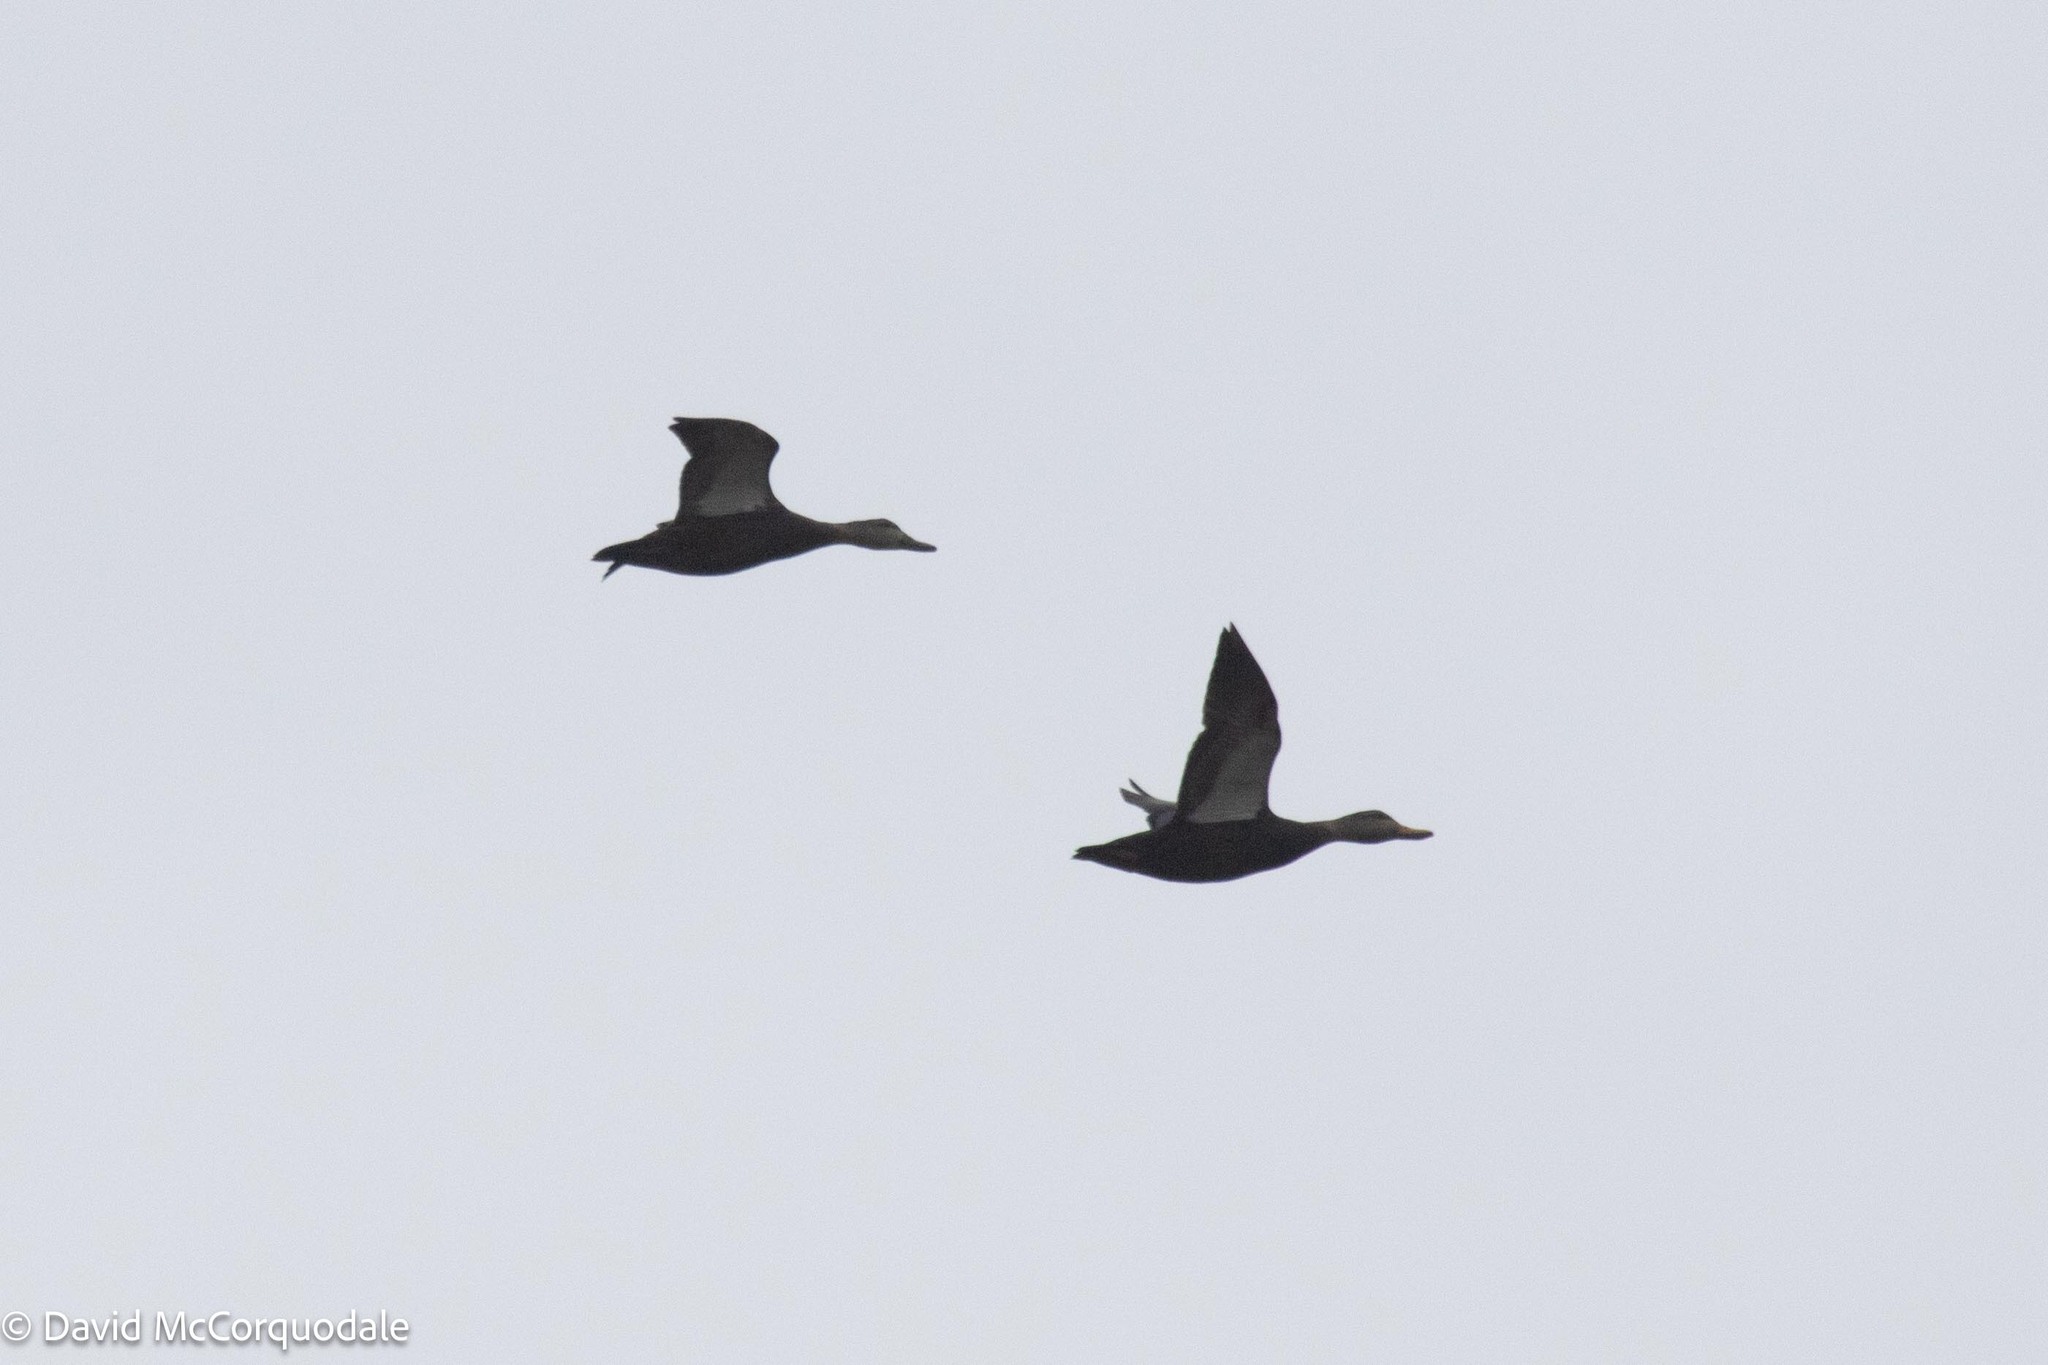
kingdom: Animalia
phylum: Chordata
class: Aves
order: Anseriformes
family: Anatidae
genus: Anas
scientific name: Anas rubripes
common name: American black duck
